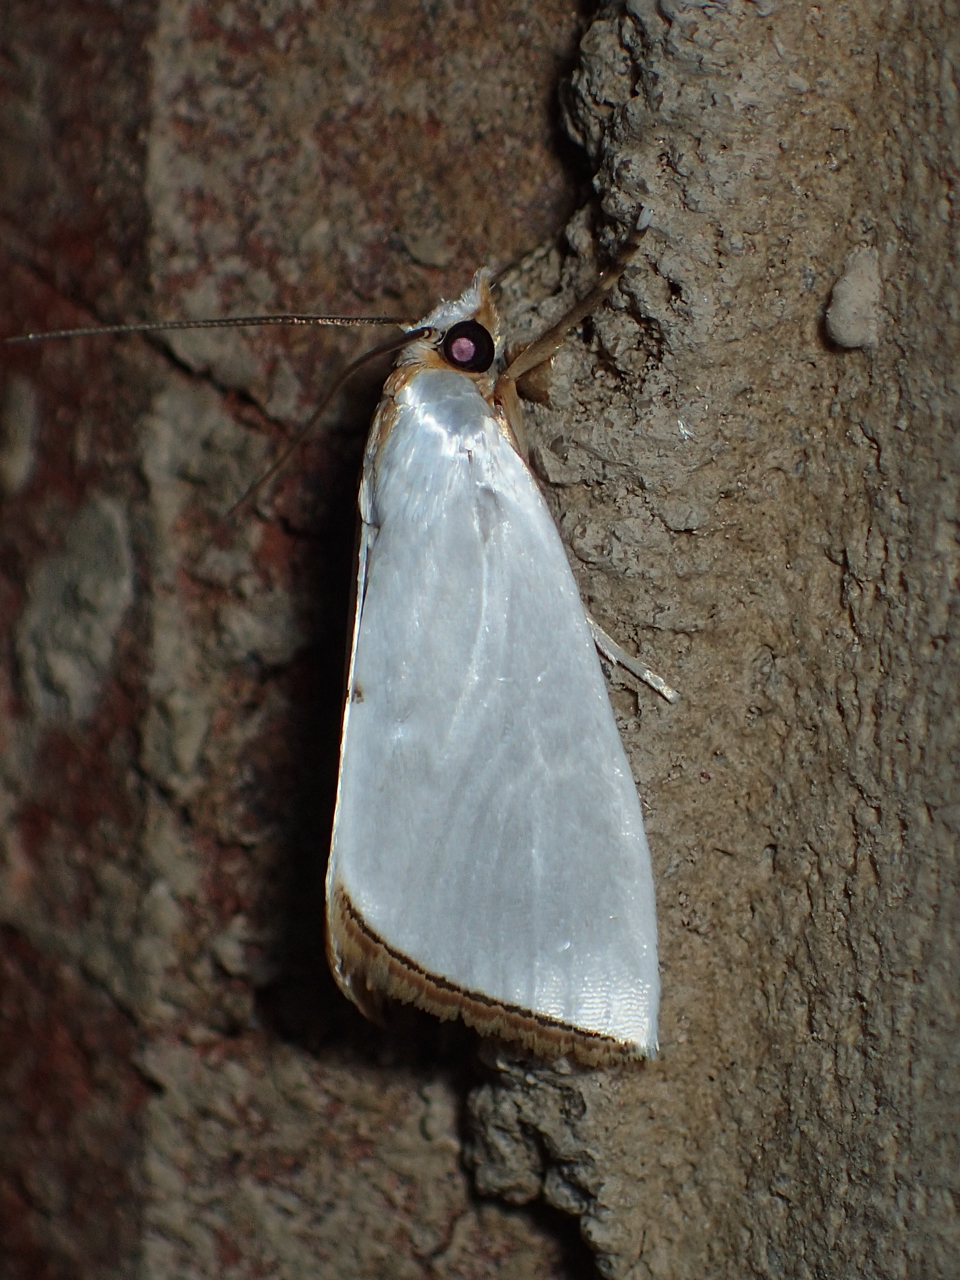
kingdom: Animalia
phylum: Arthropoda
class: Insecta
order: Lepidoptera
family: Crambidae
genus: Argyria
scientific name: Argyria nivalis
